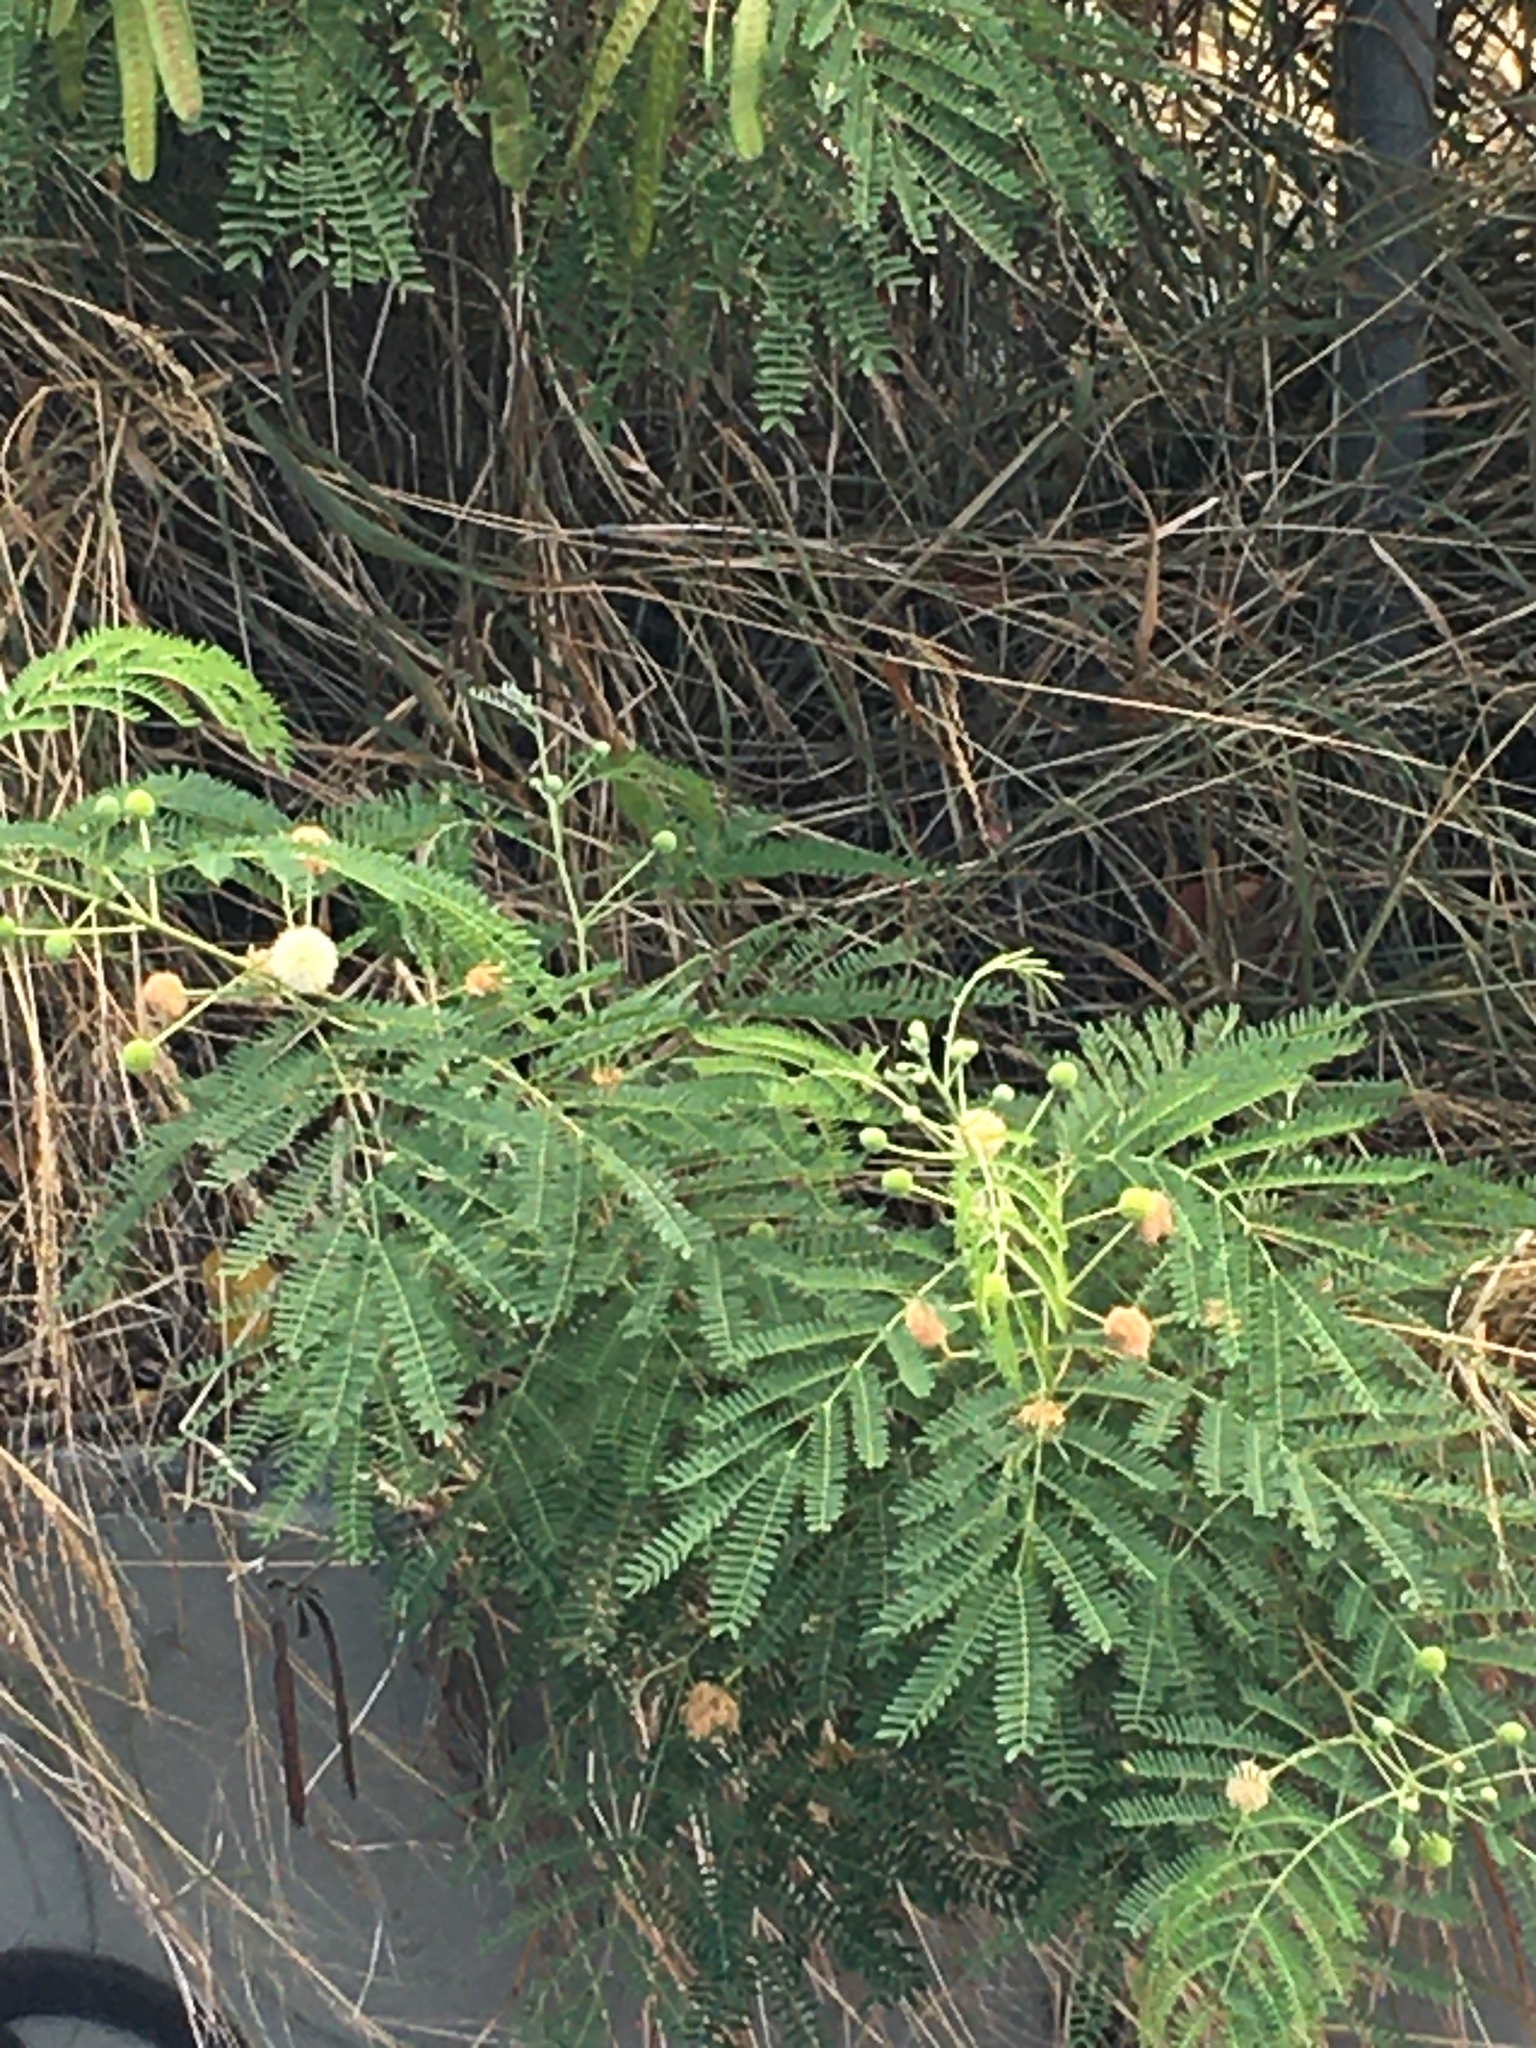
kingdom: Plantae
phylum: Tracheophyta
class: Magnoliopsida
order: Fabales
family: Fabaceae
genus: Leucaena
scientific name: Leucaena leucocephala
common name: White leadtree
